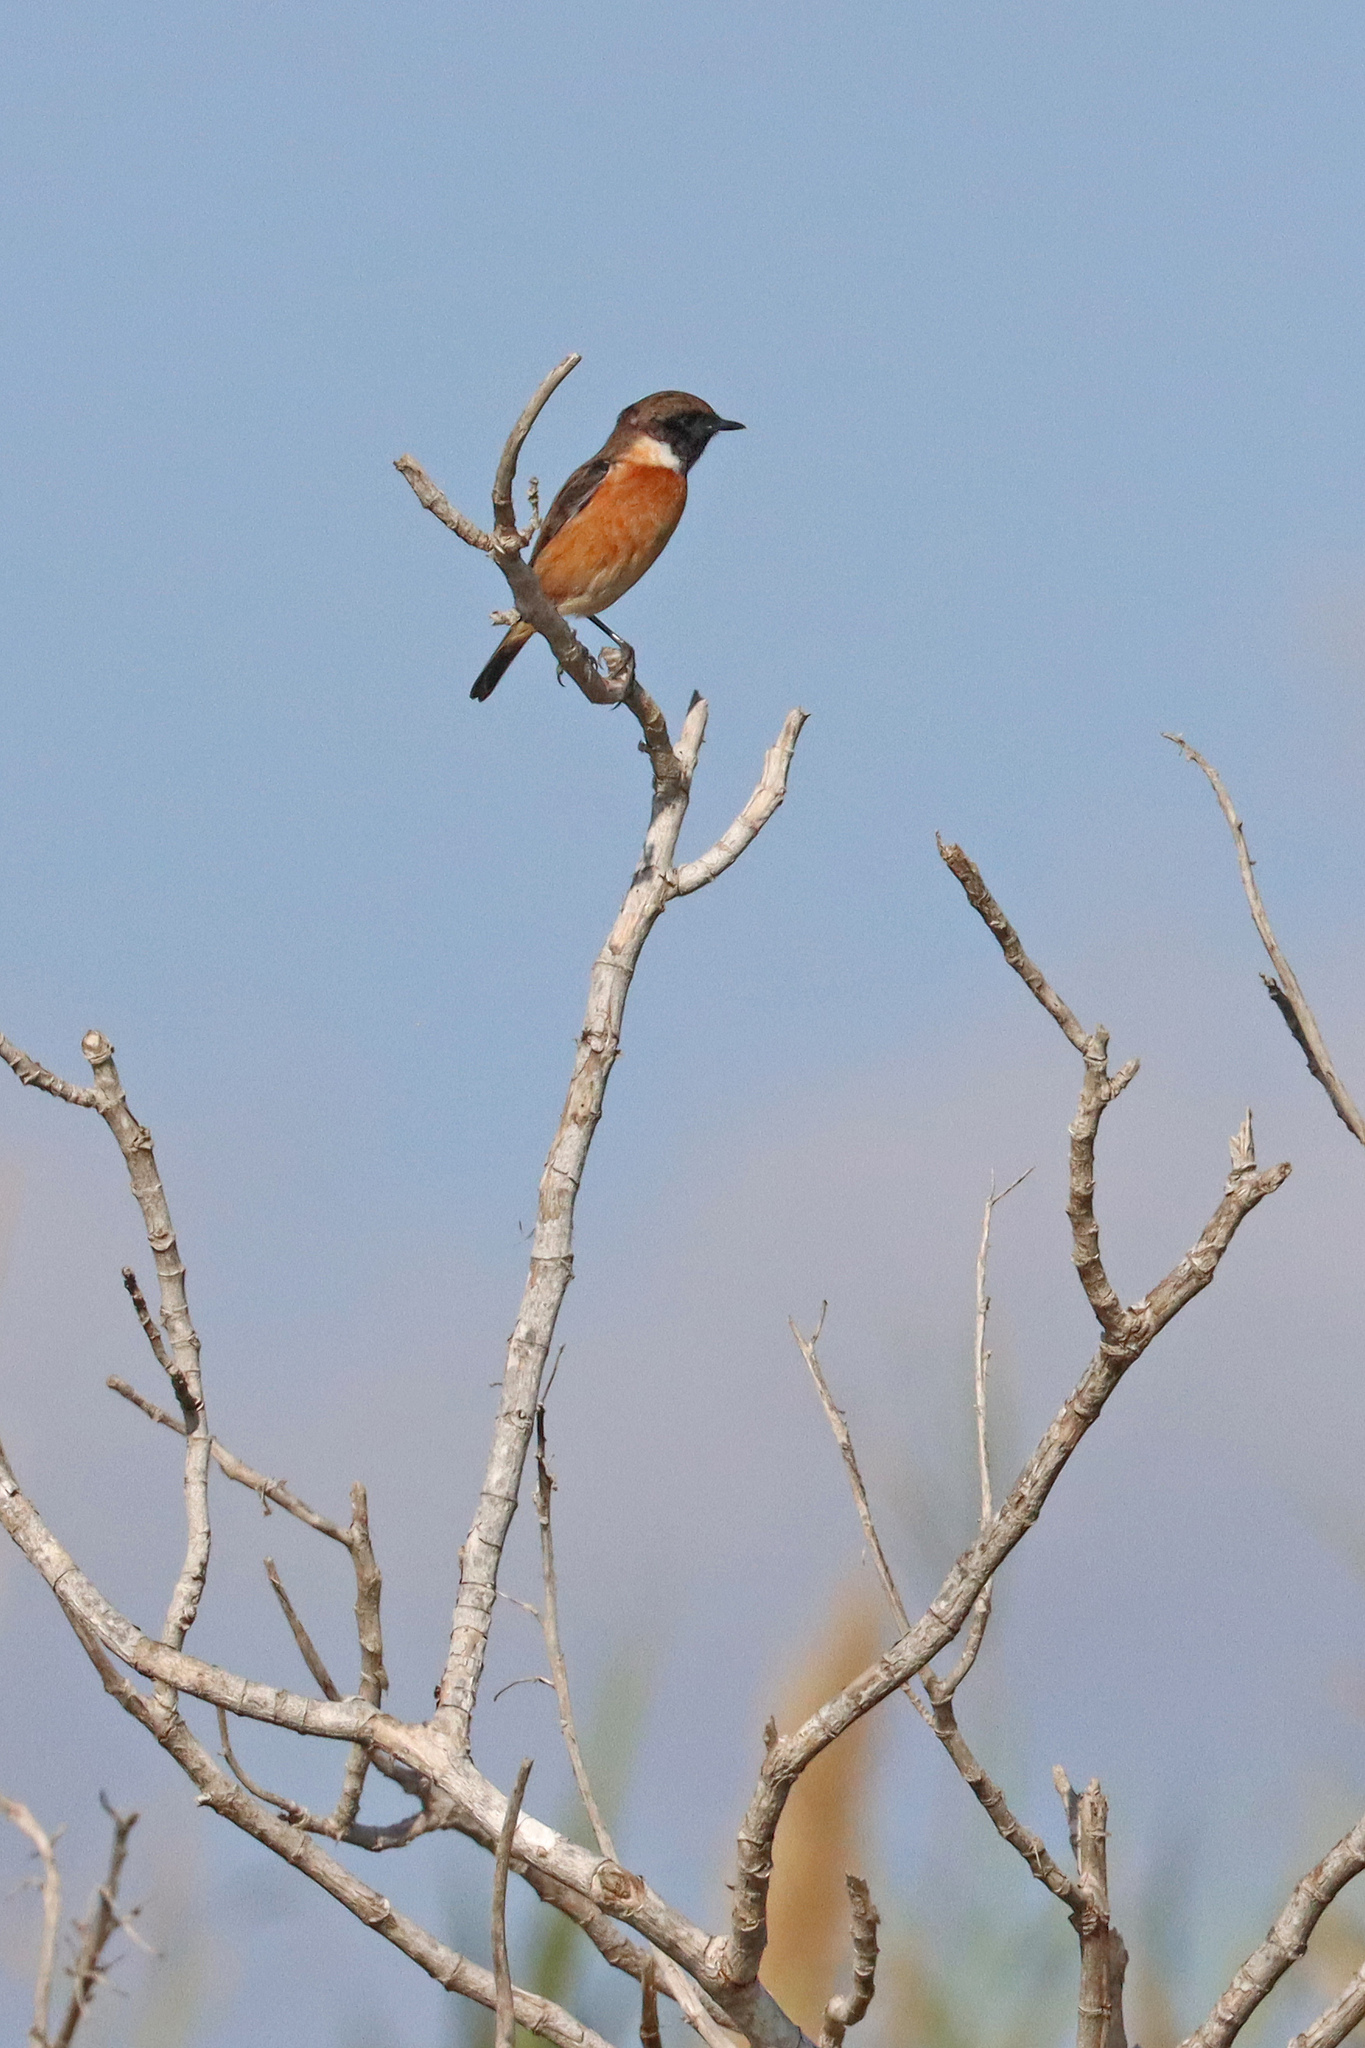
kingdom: Animalia
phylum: Chordata
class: Aves
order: Passeriformes
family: Muscicapidae
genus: Saxicola
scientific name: Saxicola rubicola
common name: European stonechat
